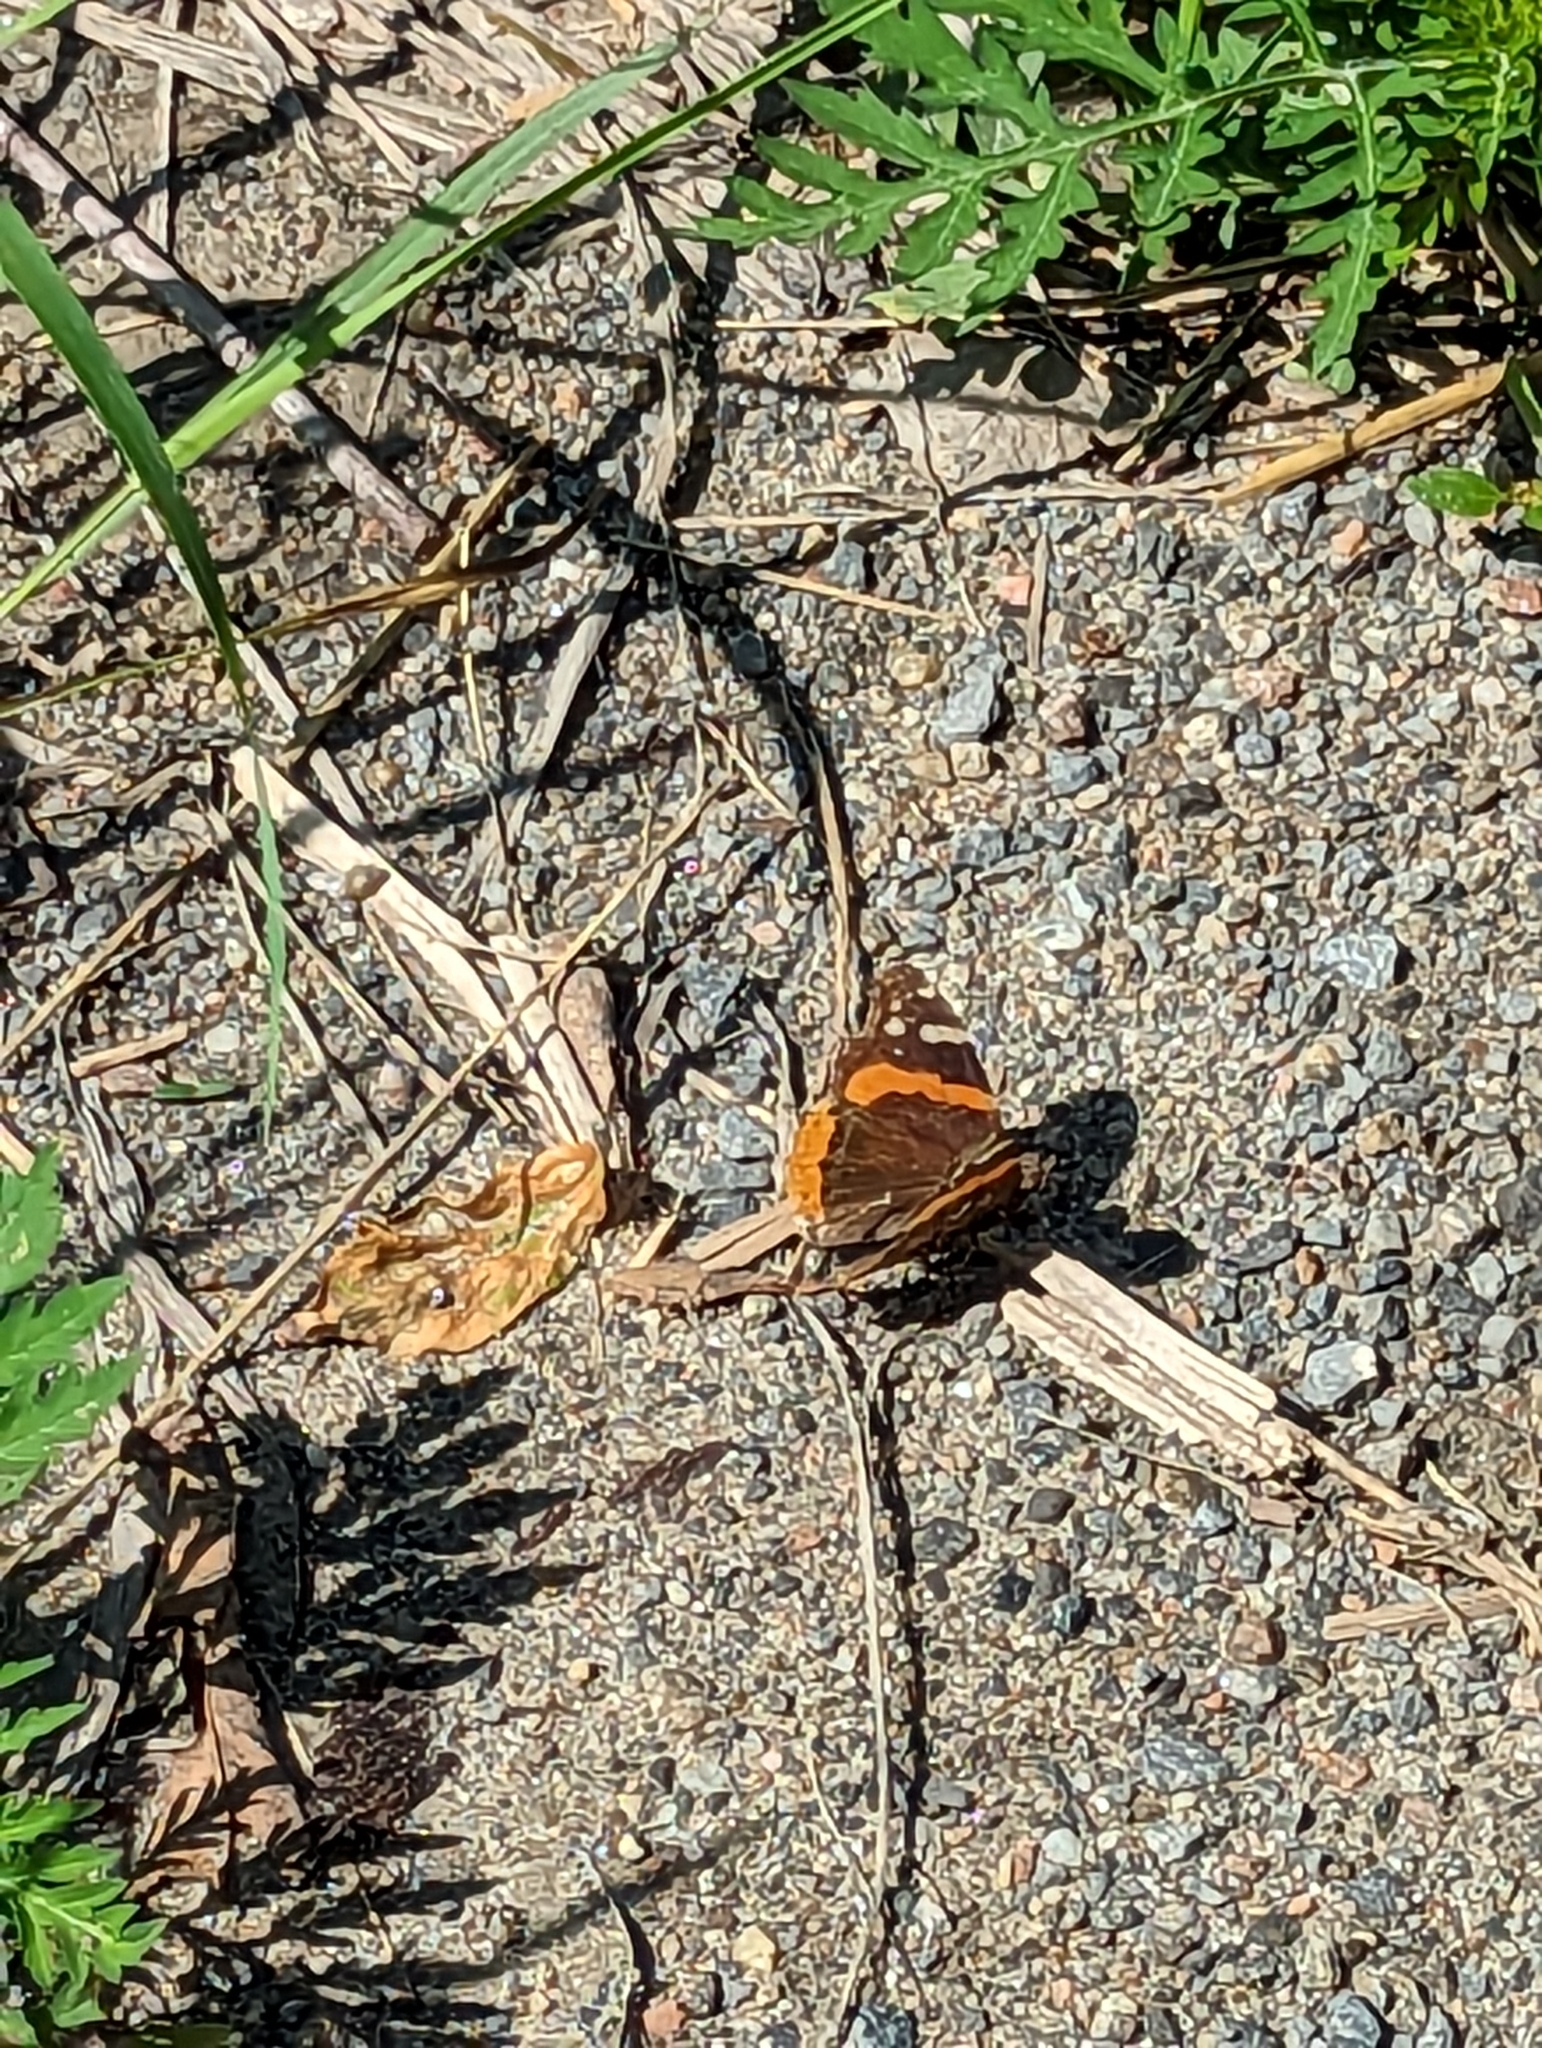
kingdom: Animalia
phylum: Arthropoda
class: Insecta
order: Lepidoptera
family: Nymphalidae
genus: Vanessa
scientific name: Vanessa atalanta
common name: Red admiral
